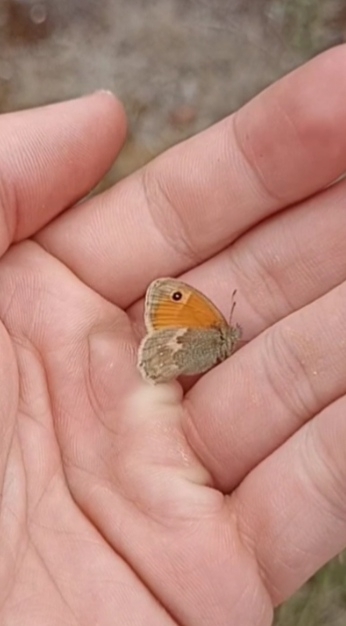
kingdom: Animalia
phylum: Arthropoda
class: Insecta
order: Lepidoptera
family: Nymphalidae
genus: Coenonympha
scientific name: Coenonympha pamphilus
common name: Small heath
